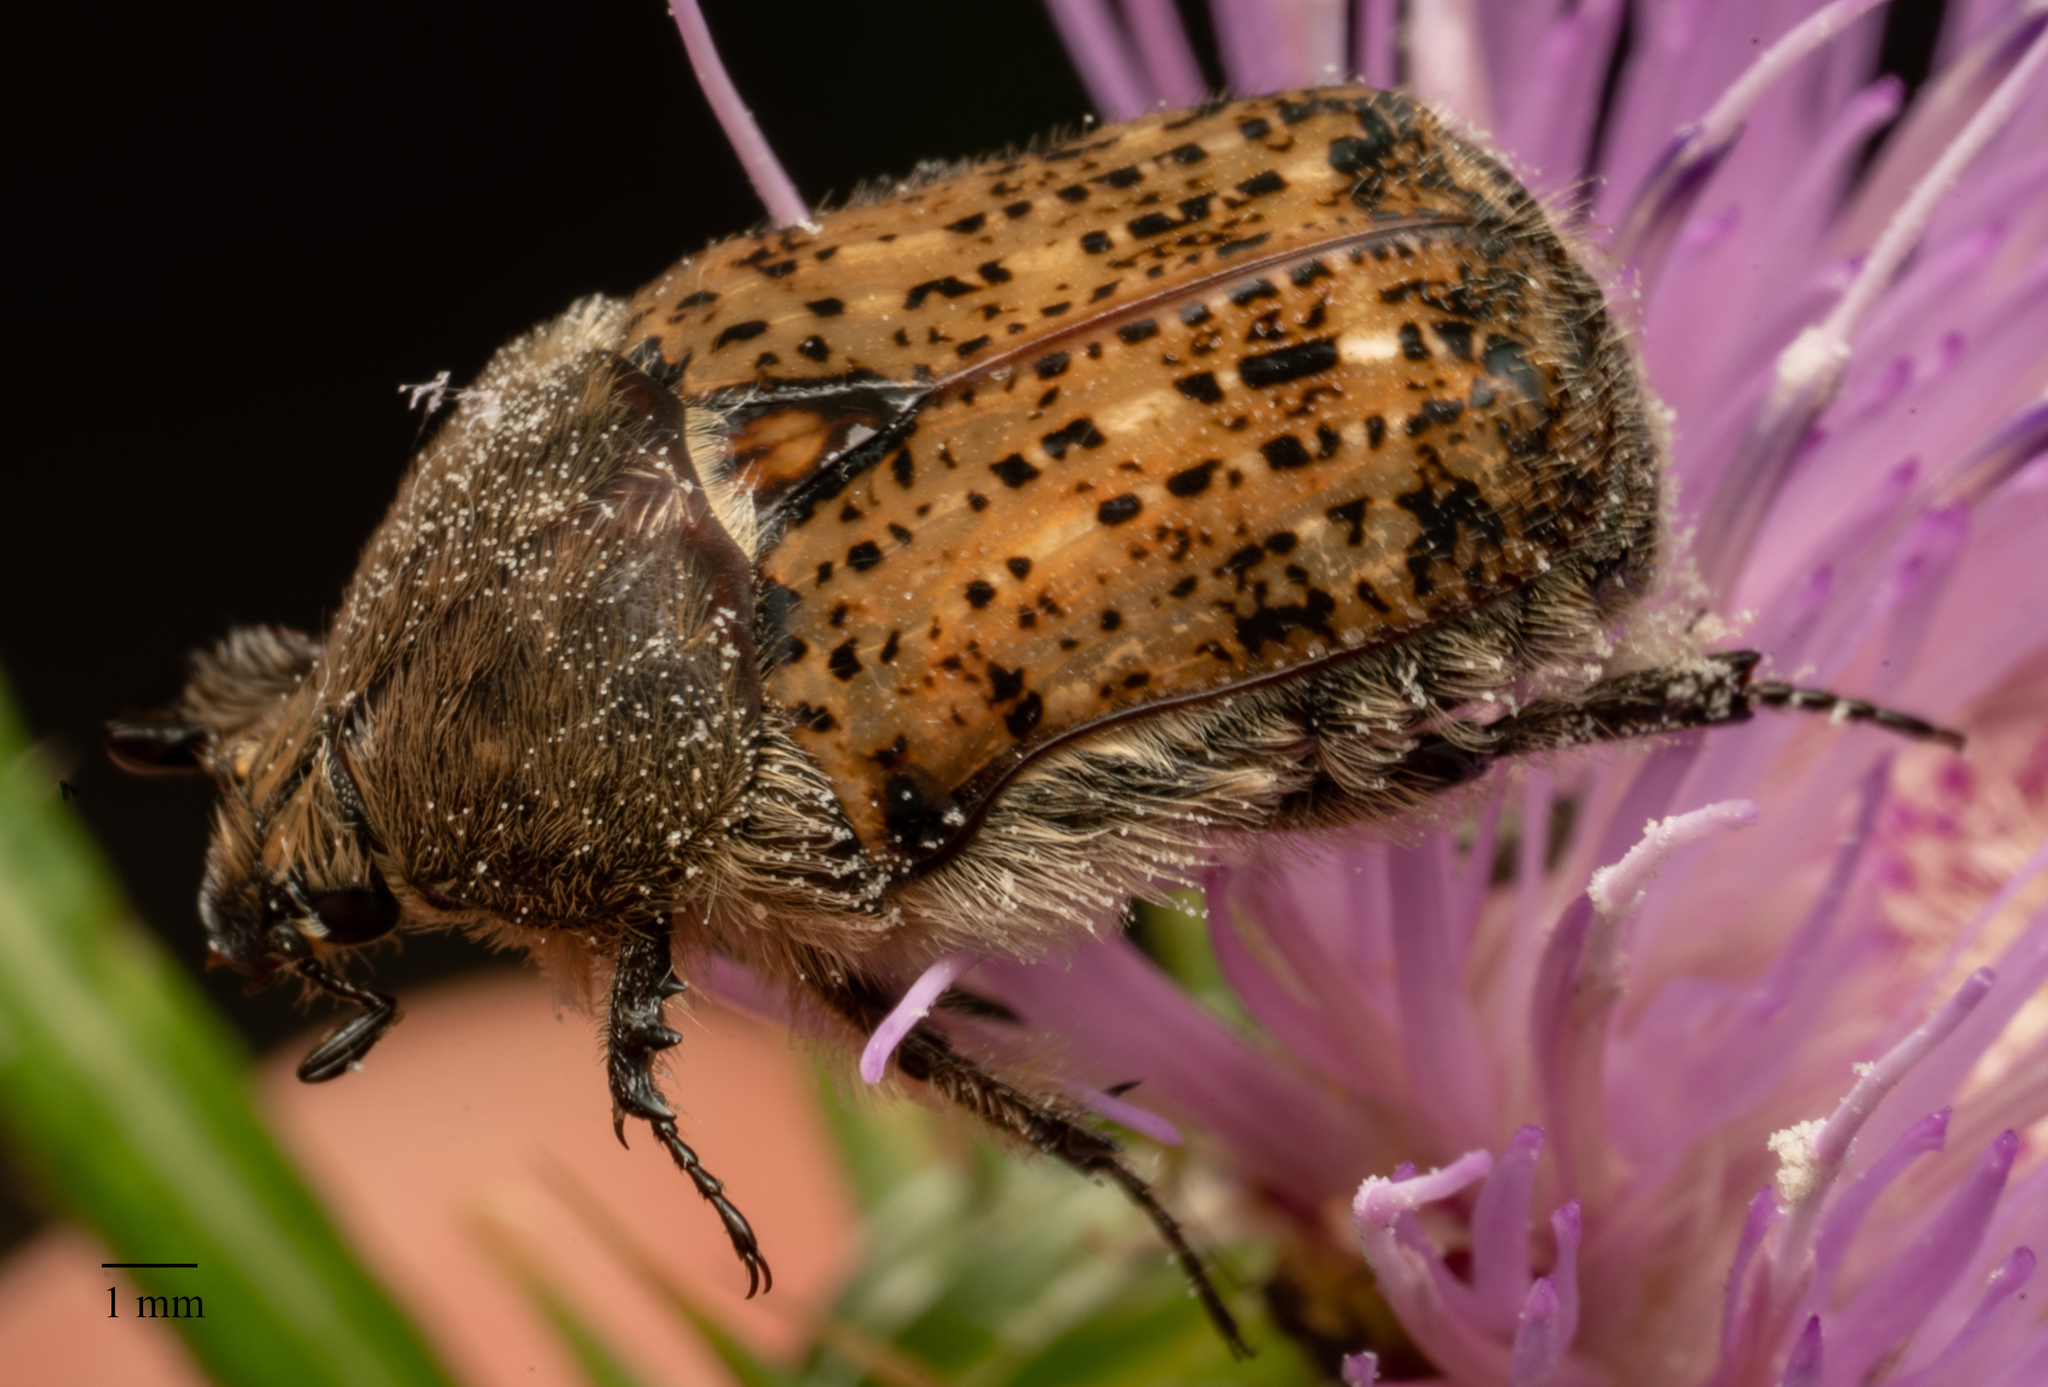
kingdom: Animalia
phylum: Arthropoda
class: Insecta
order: Coleoptera
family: Scarabaeidae
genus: Euphoria
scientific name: Euphoria inda
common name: Bumble flower beetle
